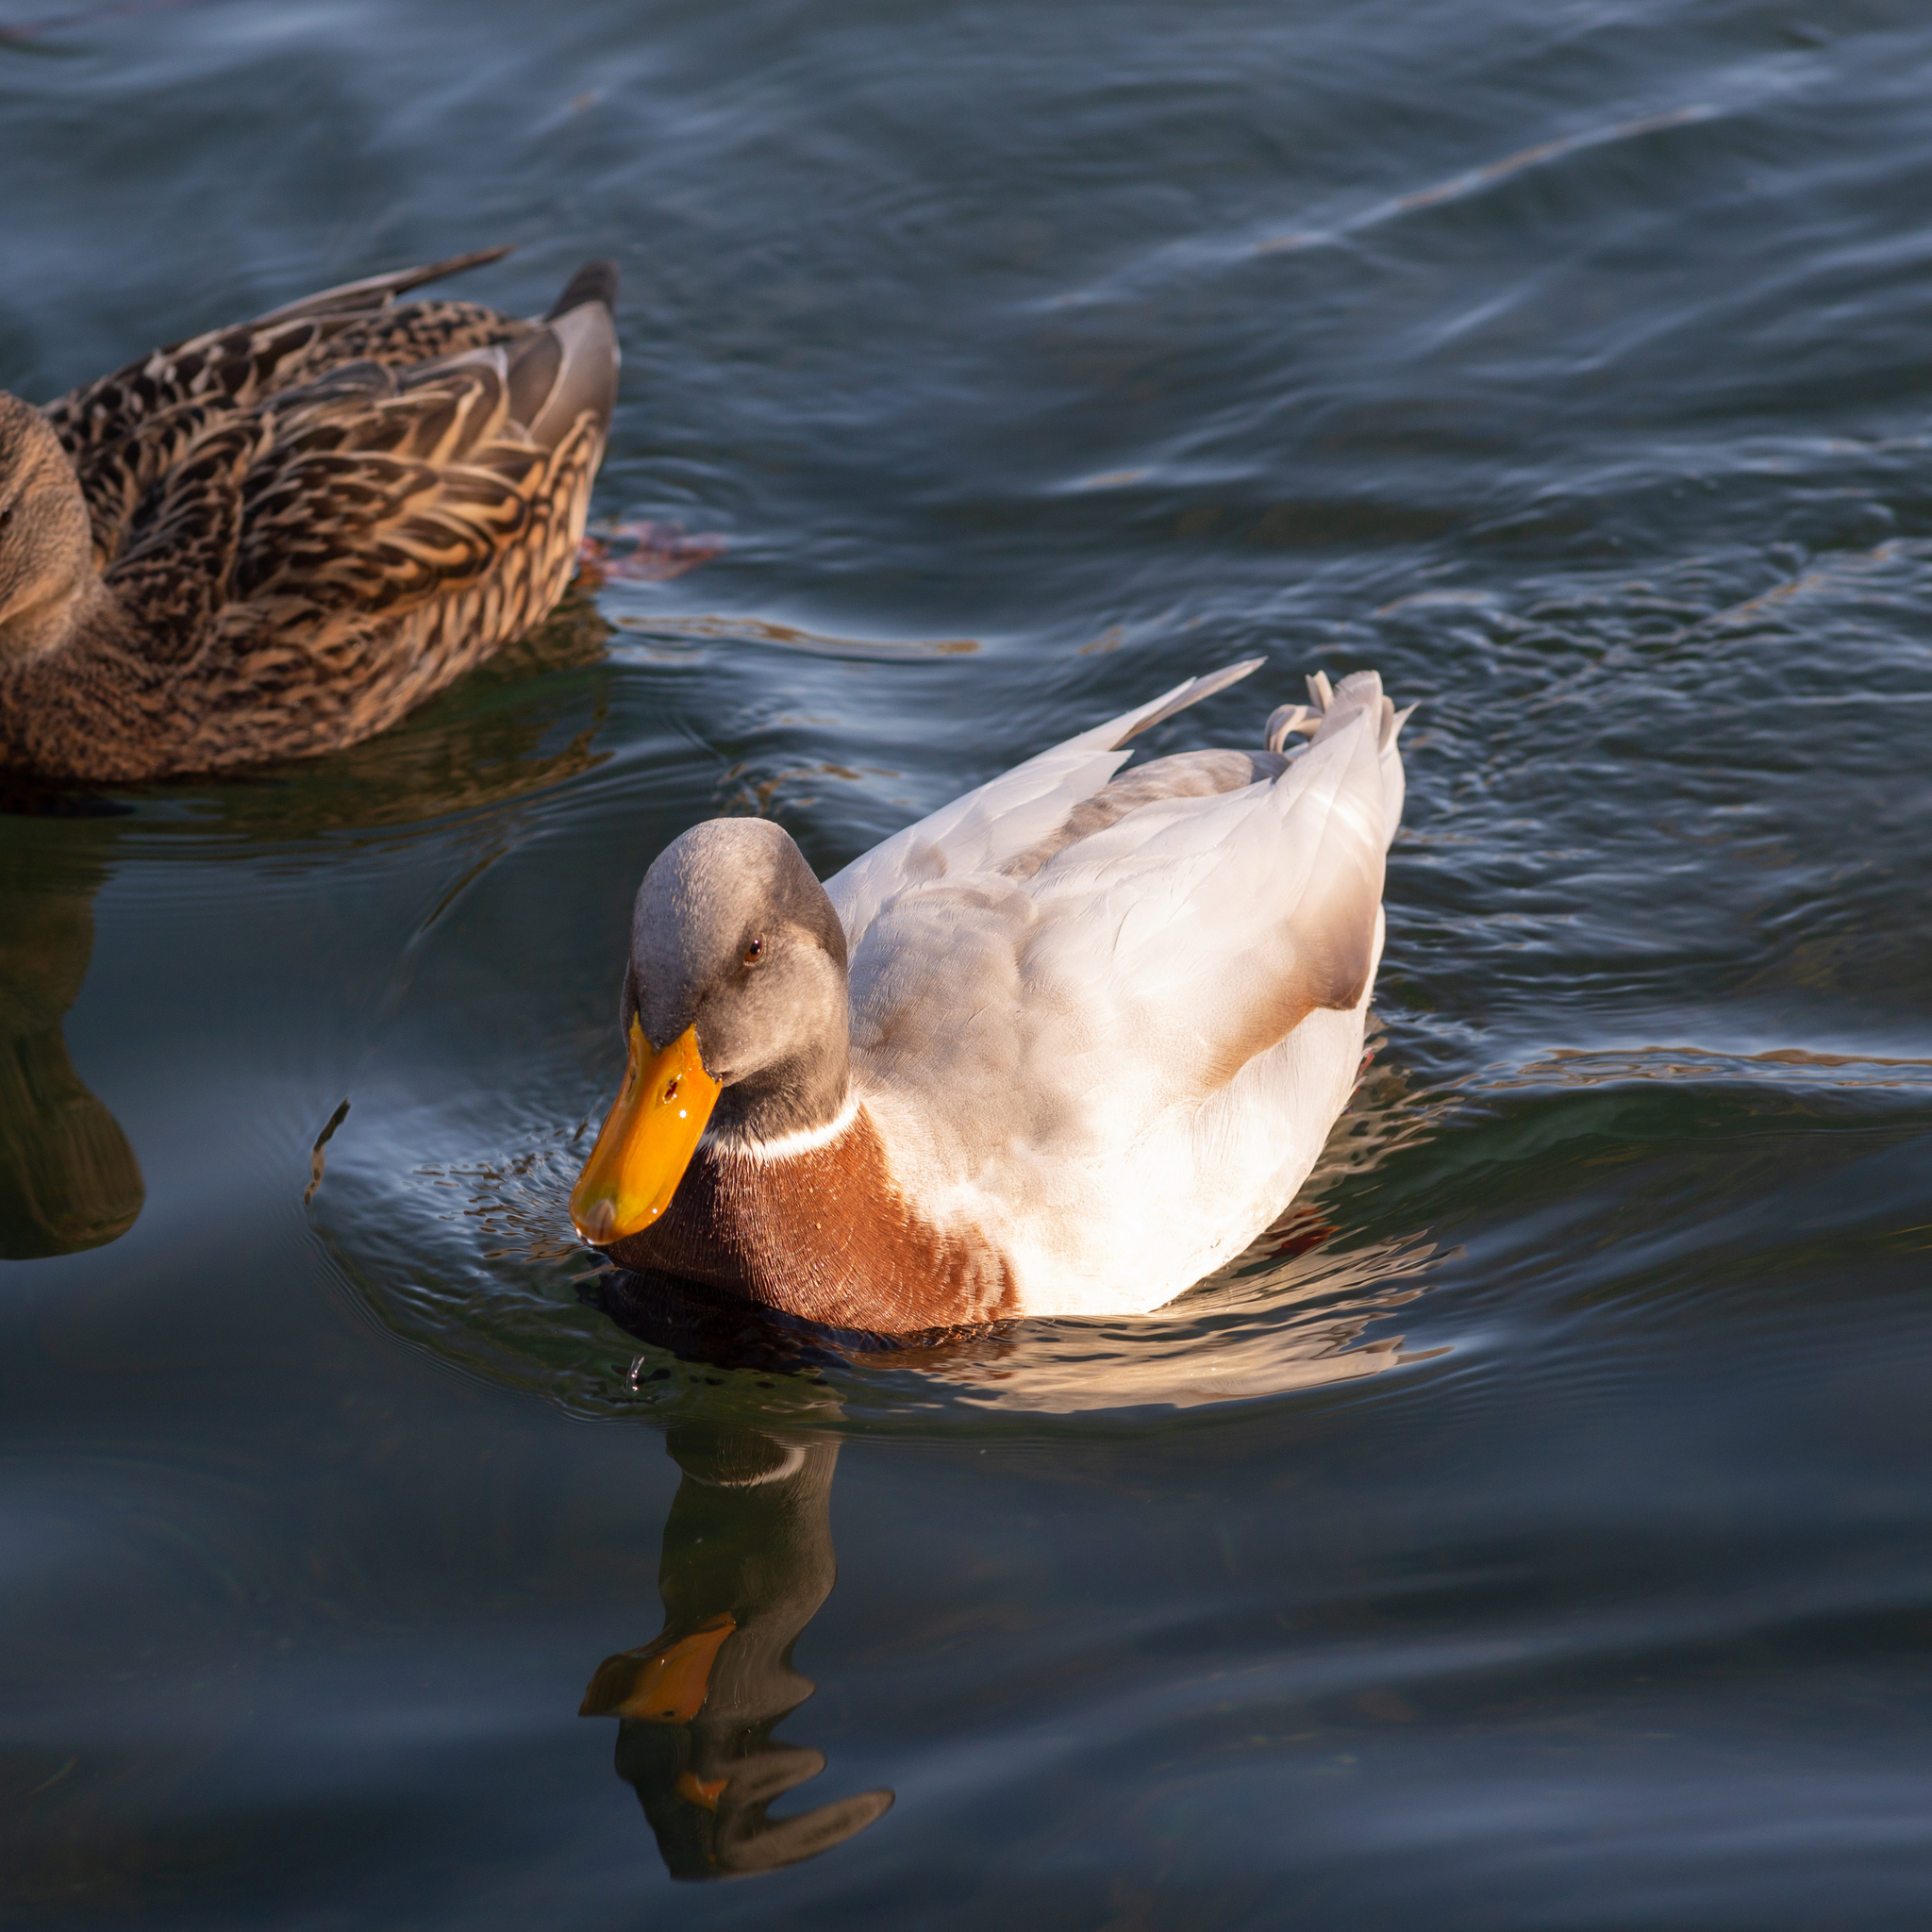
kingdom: Animalia
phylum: Chordata
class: Aves
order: Anseriformes
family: Anatidae
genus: Anas
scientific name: Anas platyrhynchos
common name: Mallard
